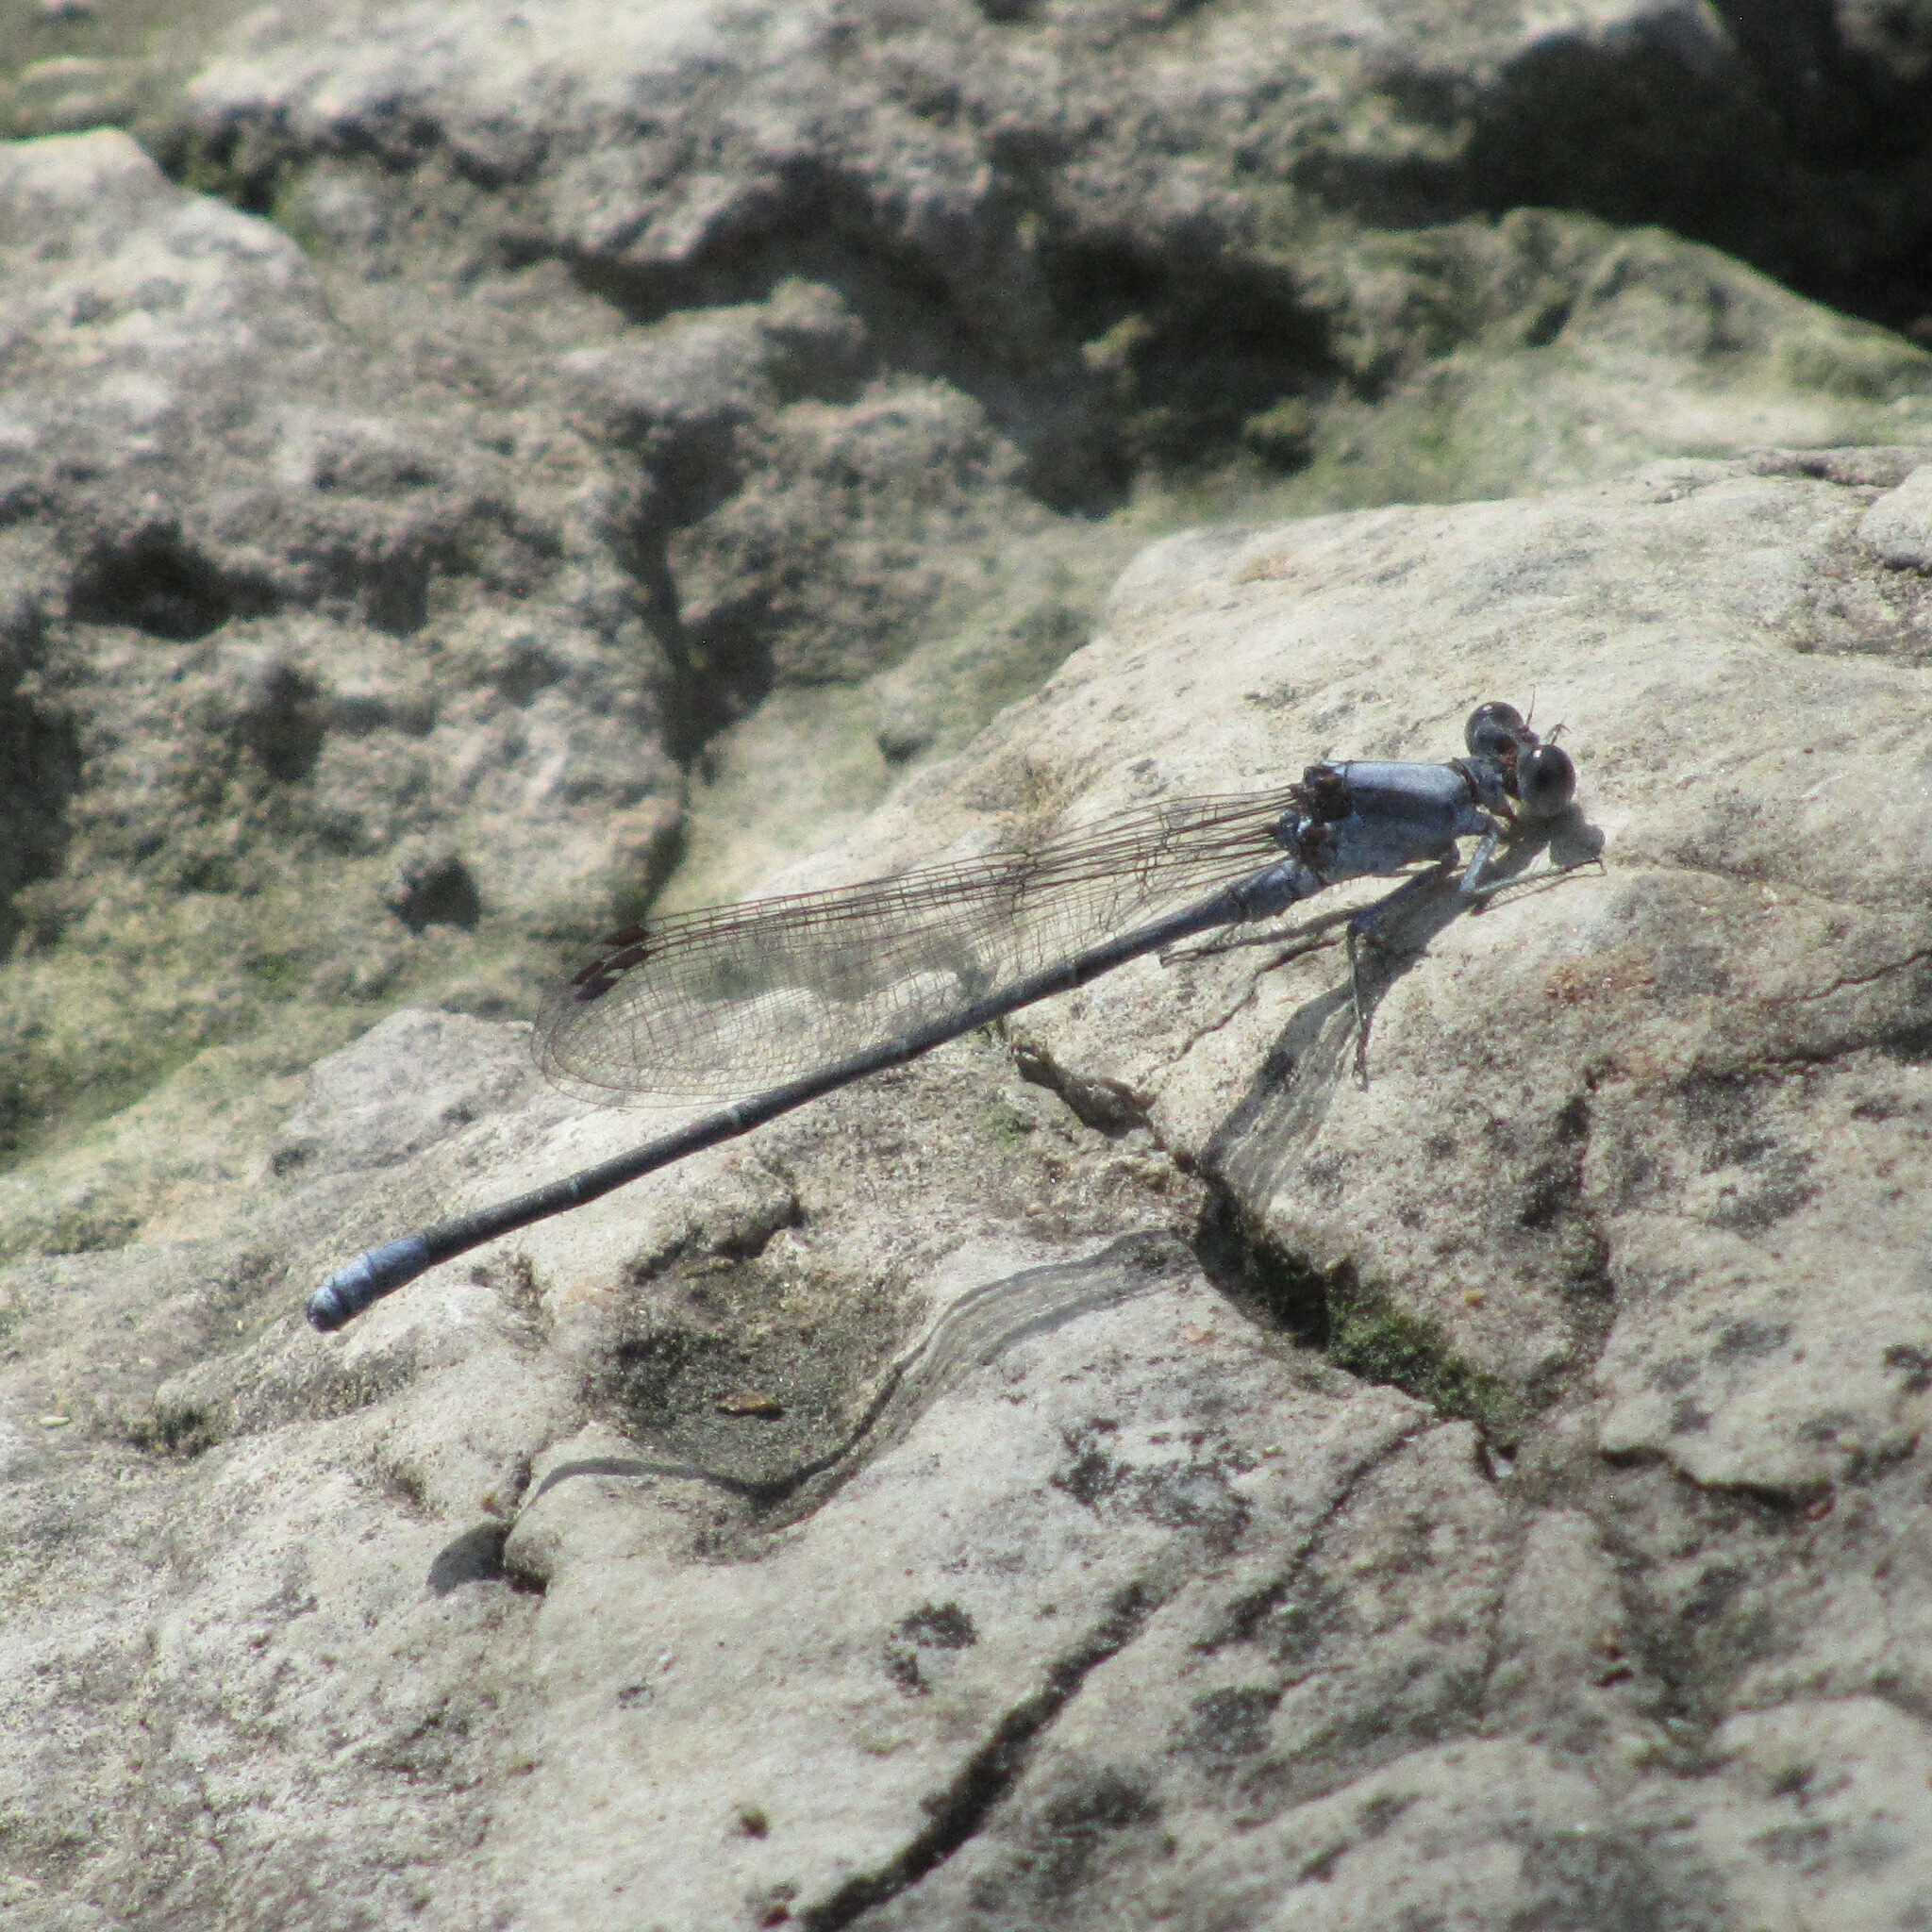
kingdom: Animalia
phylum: Arthropoda
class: Insecta
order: Odonata
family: Coenagrionidae
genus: Argia
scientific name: Argia moesta
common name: Powdered dancer
